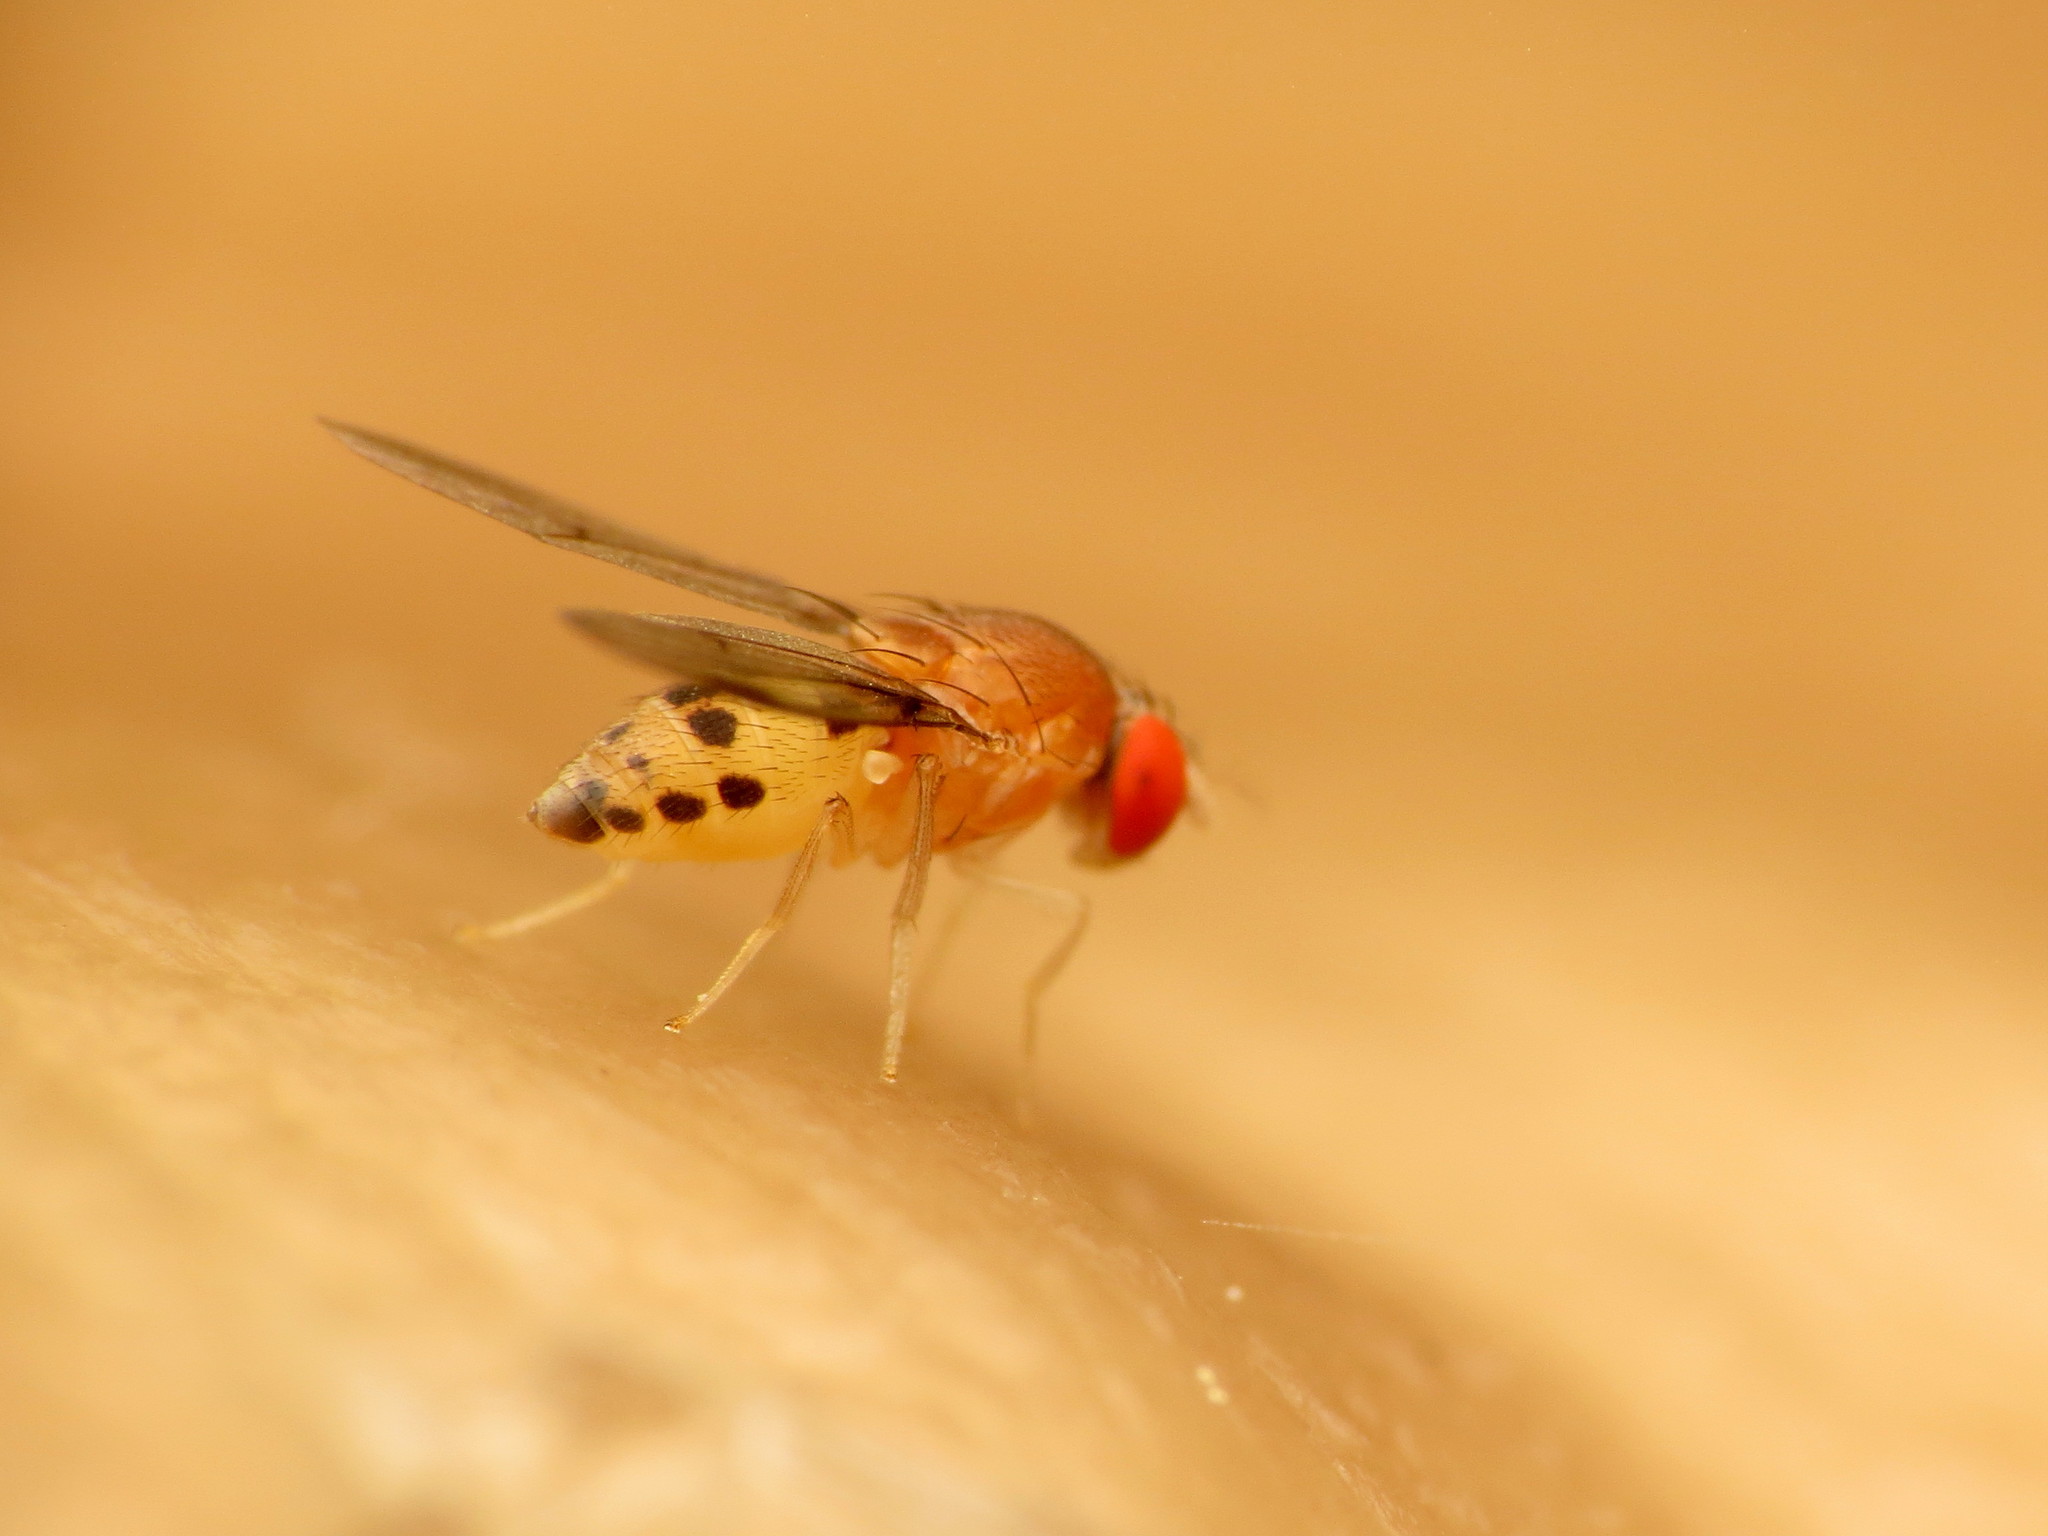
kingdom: Animalia
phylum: Arthropoda
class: Insecta
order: Diptera
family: Drosophilidae
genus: Leucophenga
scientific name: Leucophenga varia
